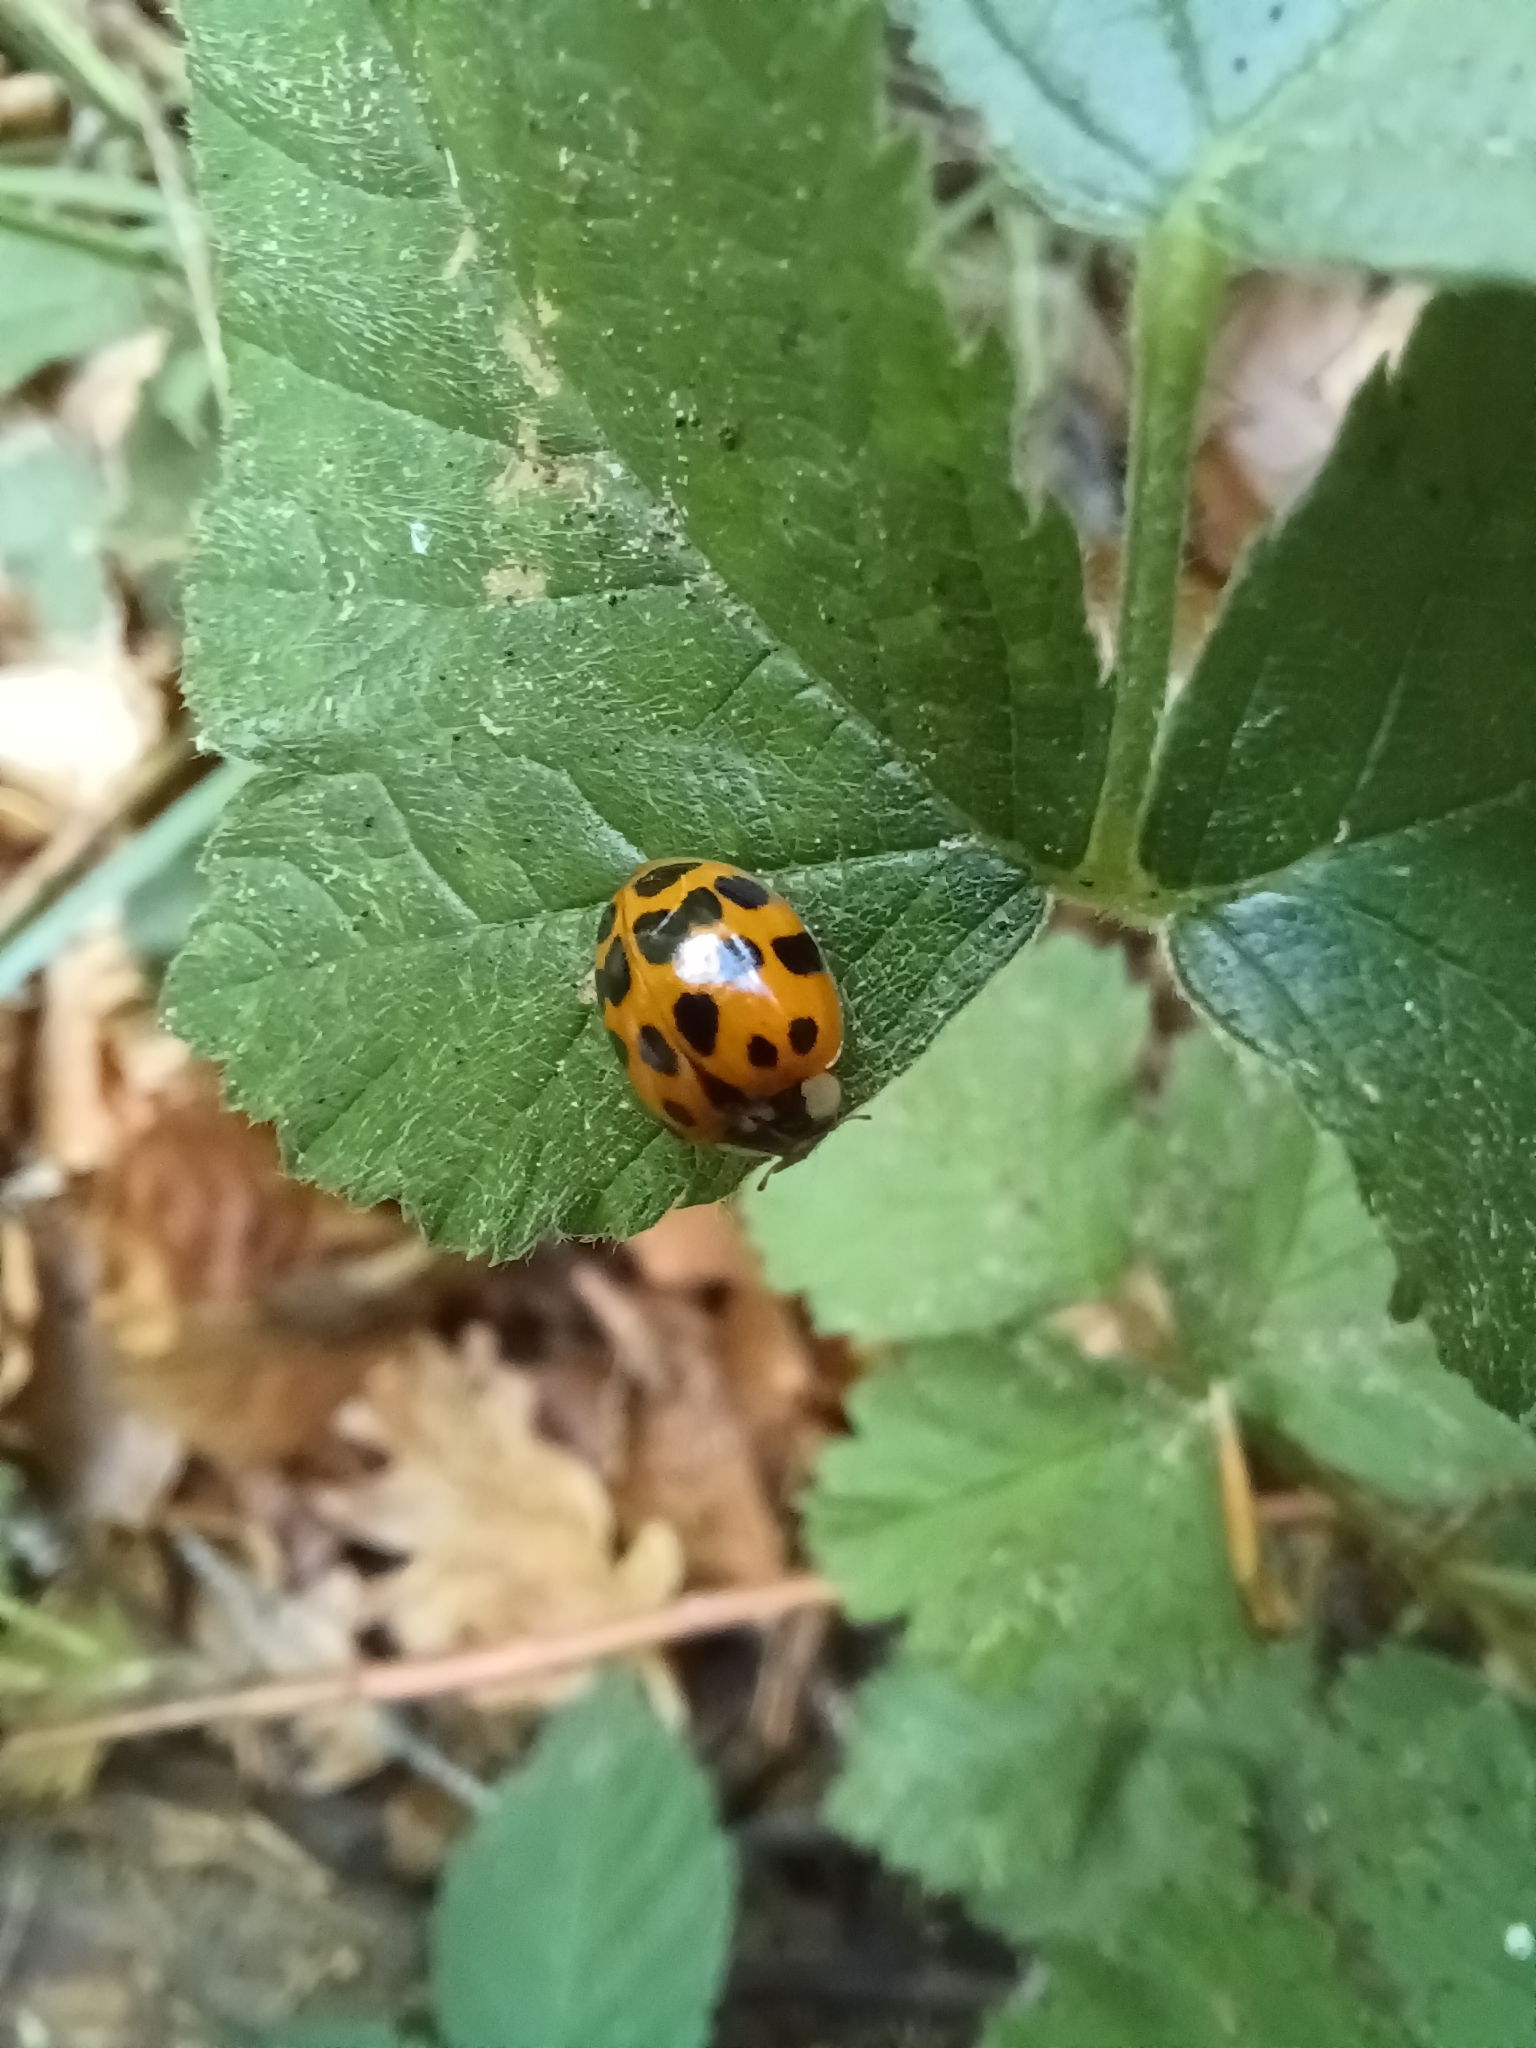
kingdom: Animalia
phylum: Arthropoda
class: Insecta
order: Coleoptera
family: Coccinellidae
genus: Harmonia
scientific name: Harmonia axyridis
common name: Harlequin ladybird
